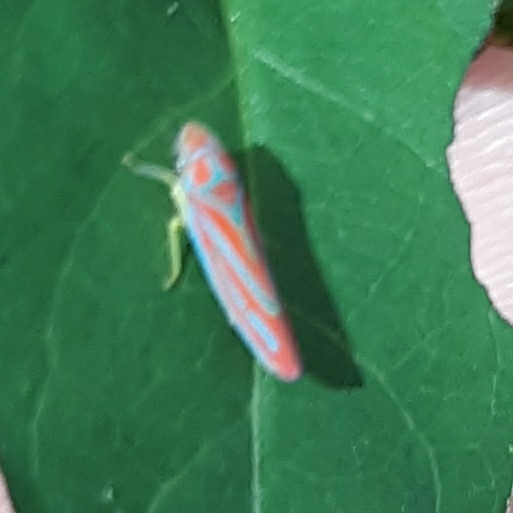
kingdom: Animalia
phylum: Arthropoda
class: Insecta
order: Hemiptera
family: Cicadellidae
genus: Graphocephala
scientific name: Graphocephala coccinea
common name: Candy-striped leafhopper
